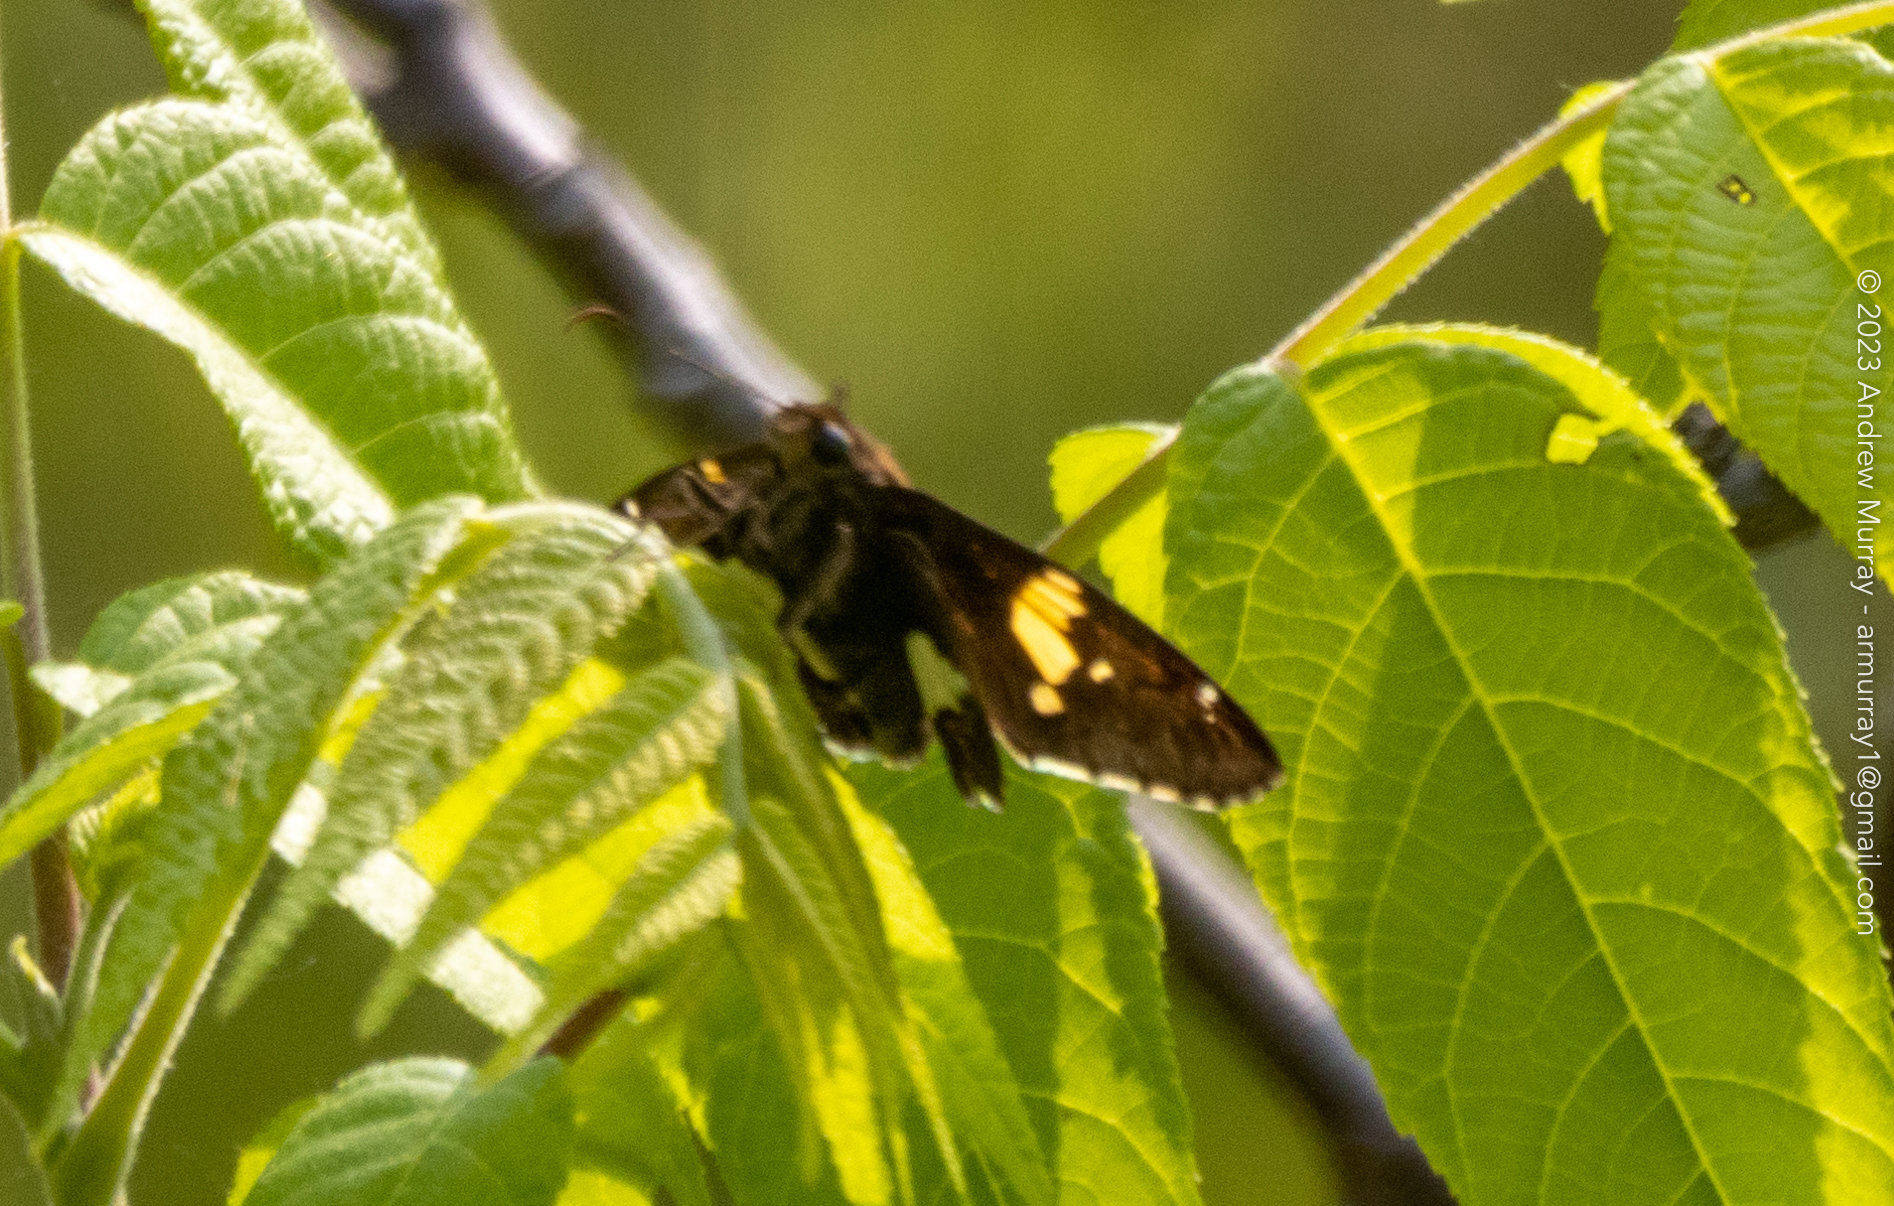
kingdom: Animalia
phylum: Arthropoda
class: Insecta
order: Lepidoptera
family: Hesperiidae
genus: Epargyreus
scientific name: Epargyreus clarus
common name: Silver-spotted skipper
